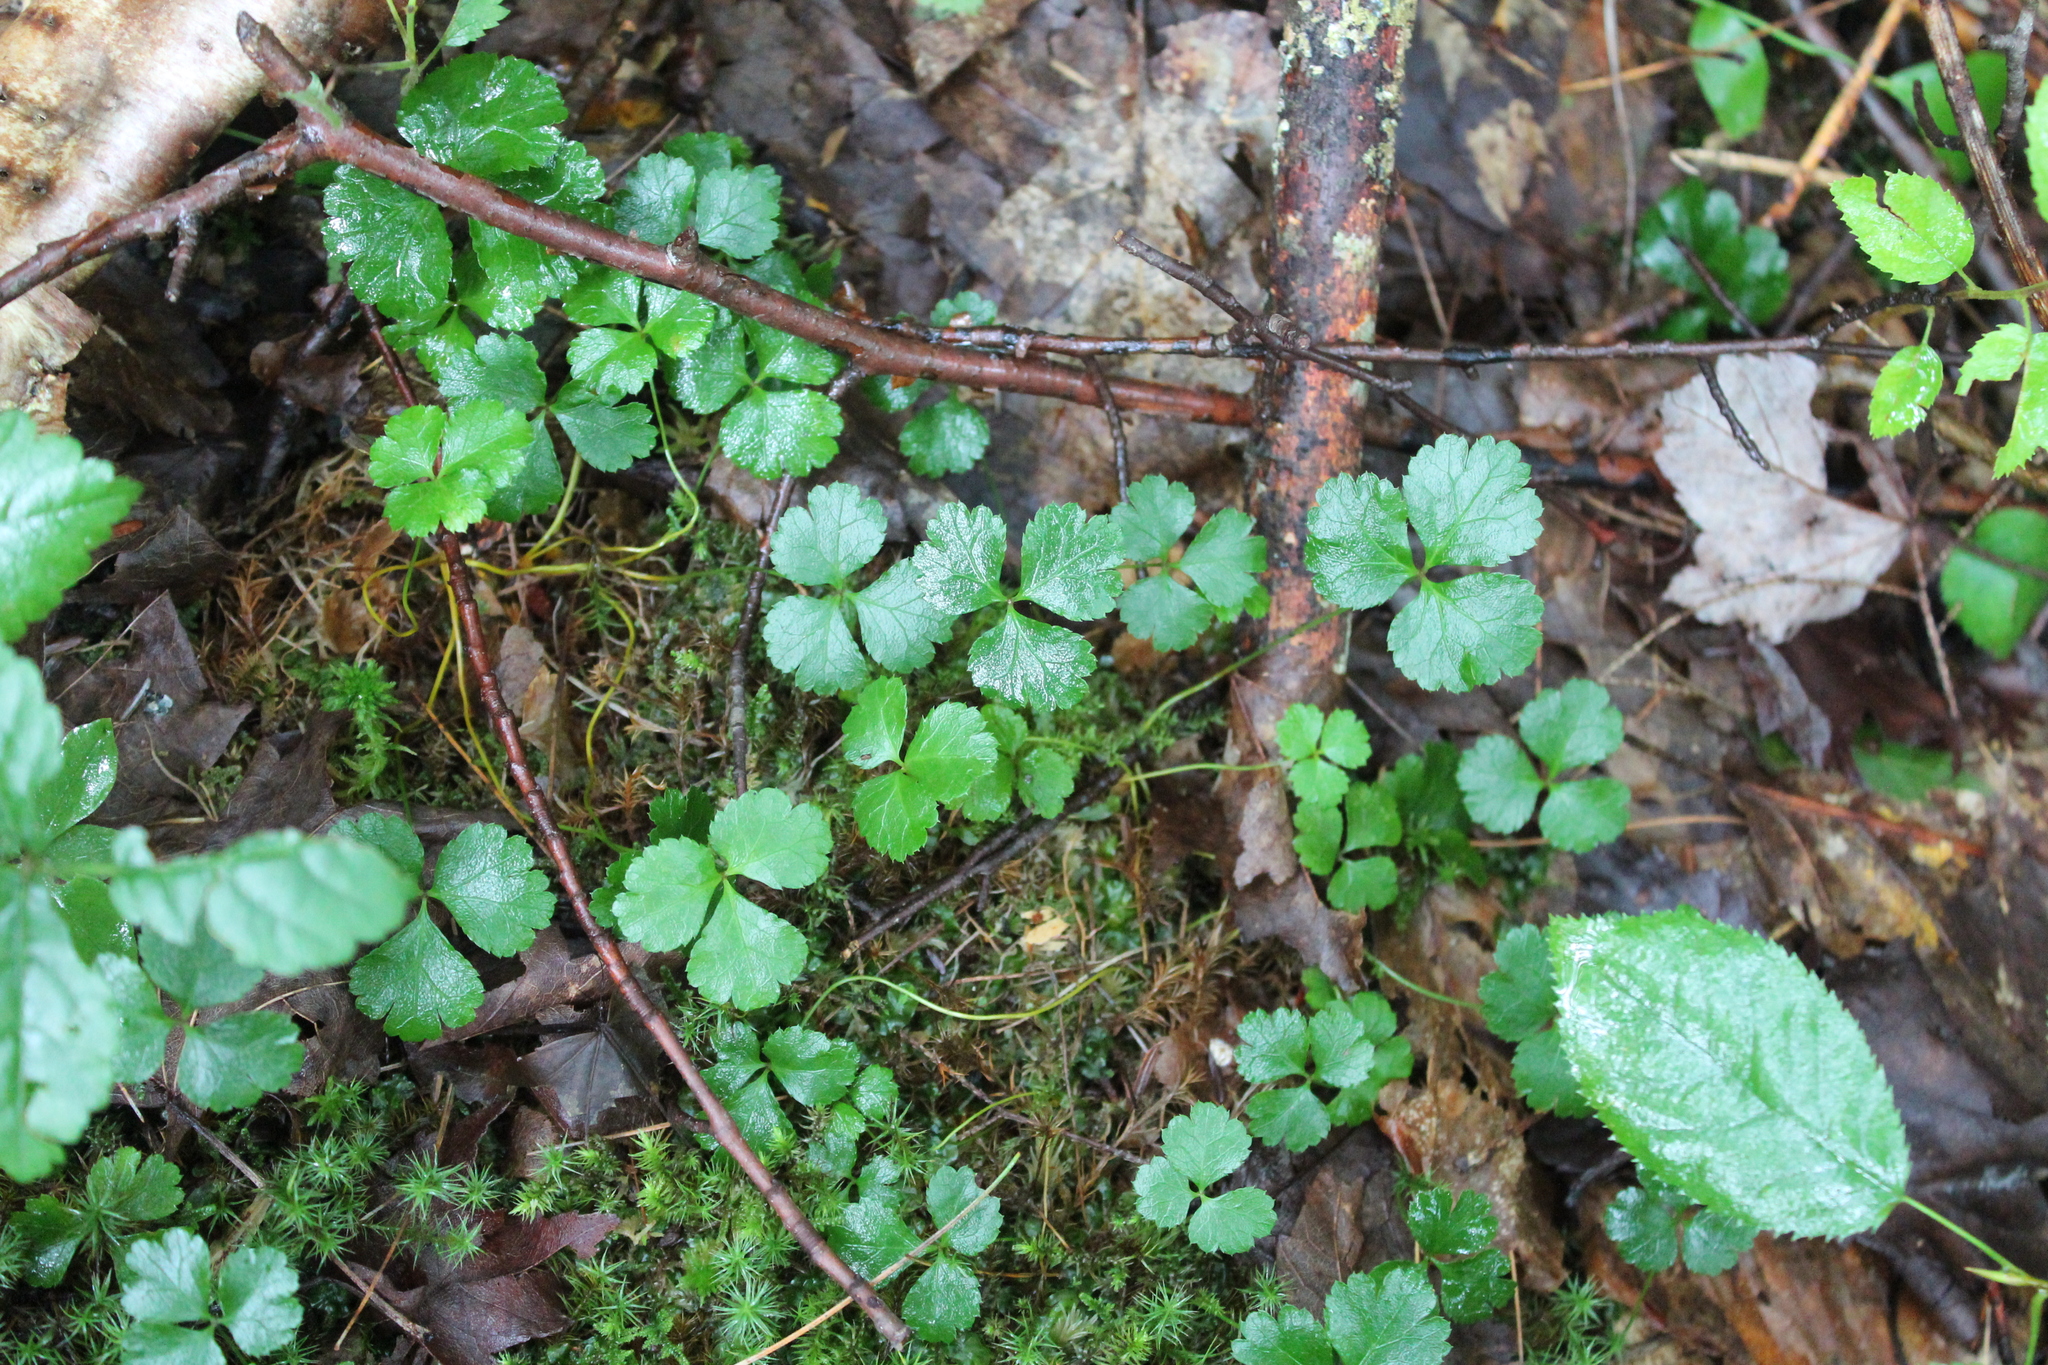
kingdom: Plantae
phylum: Tracheophyta
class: Magnoliopsida
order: Ranunculales
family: Ranunculaceae
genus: Coptis
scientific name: Coptis trifolia
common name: Canker-root
